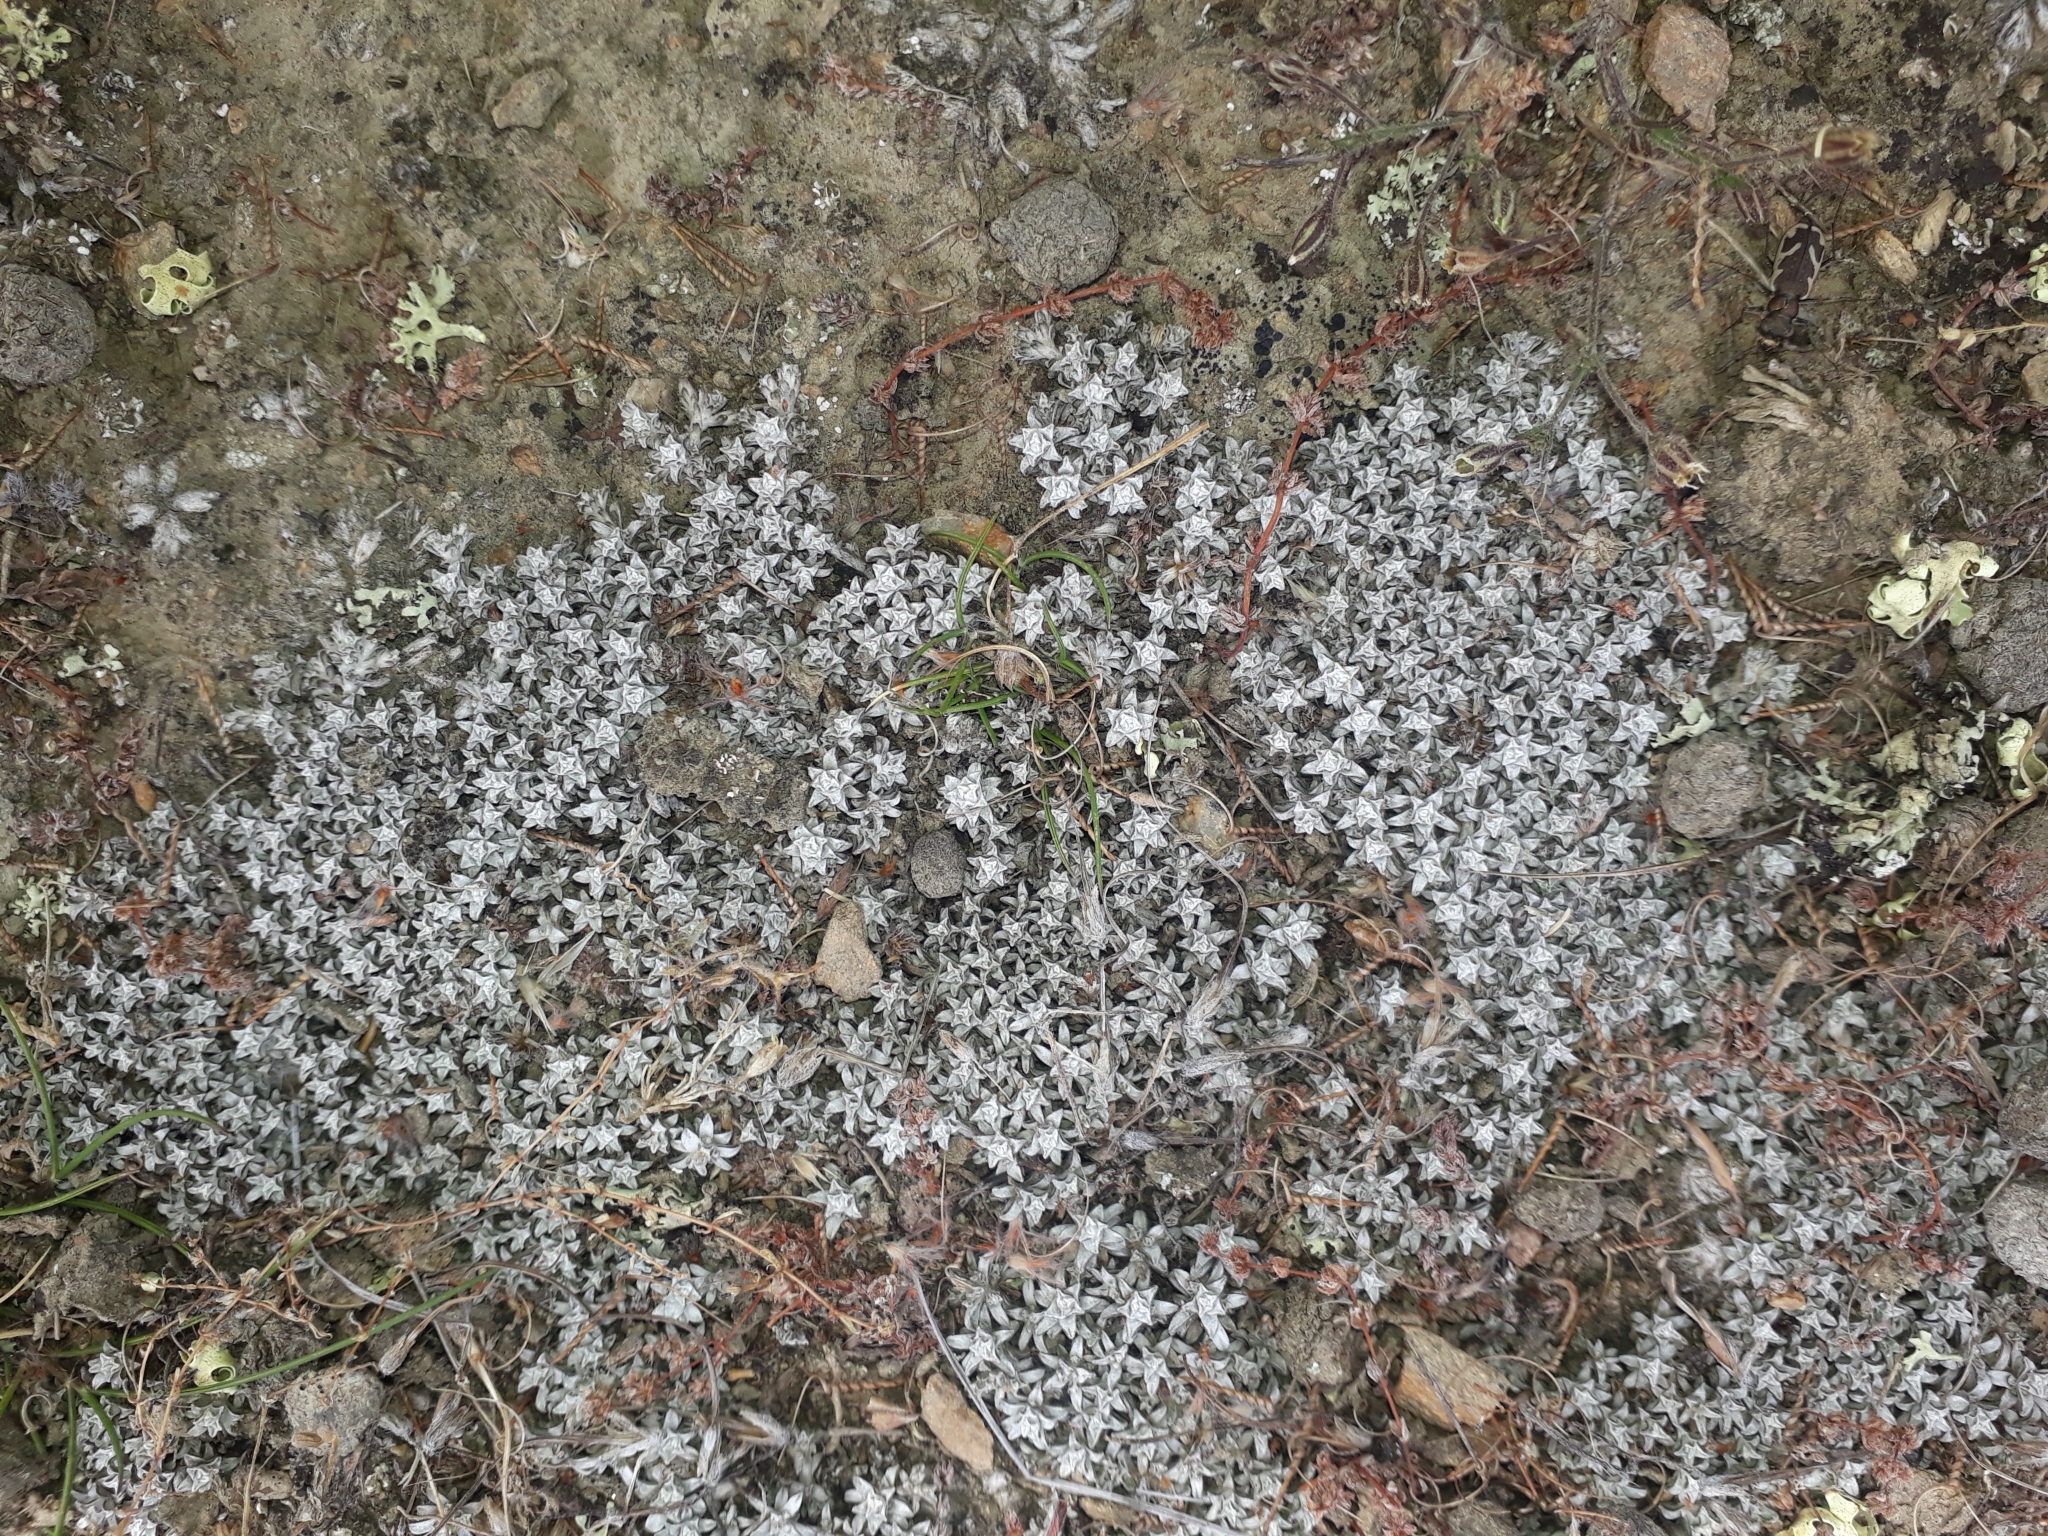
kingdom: Plantae
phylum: Tracheophyta
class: Magnoliopsida
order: Asterales
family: Asteraceae
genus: Raoulia
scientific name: Raoulia beauverdii
